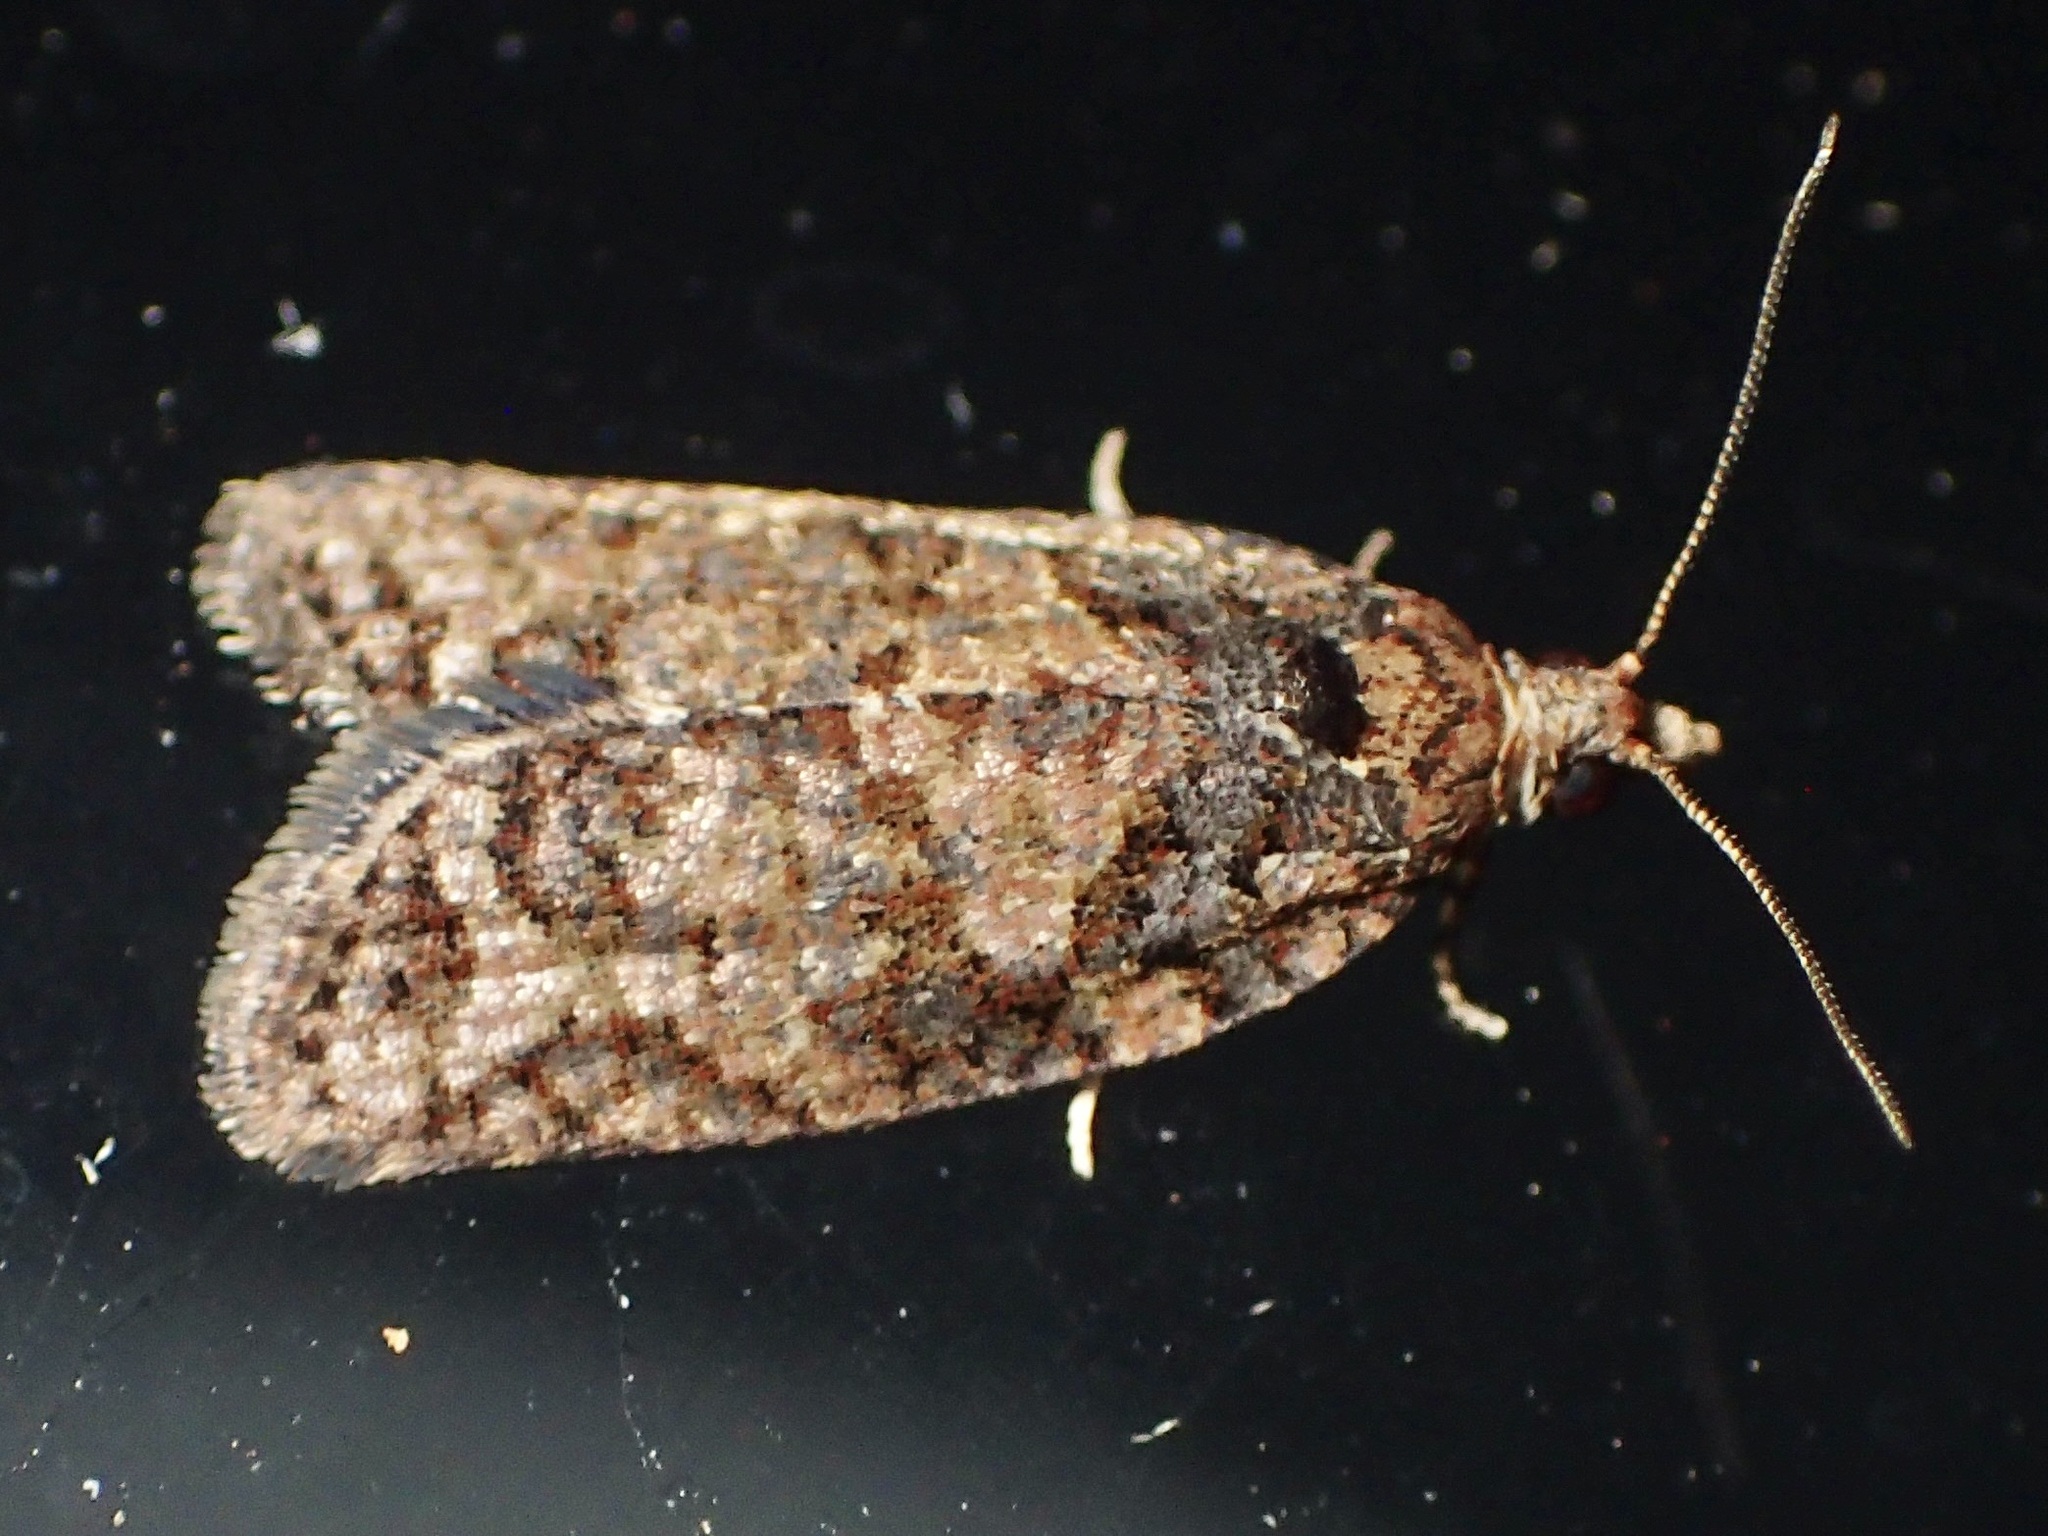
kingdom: Animalia
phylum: Arthropoda
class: Insecta
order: Lepidoptera
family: Tortricidae
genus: Capua
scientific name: Capua intractana
